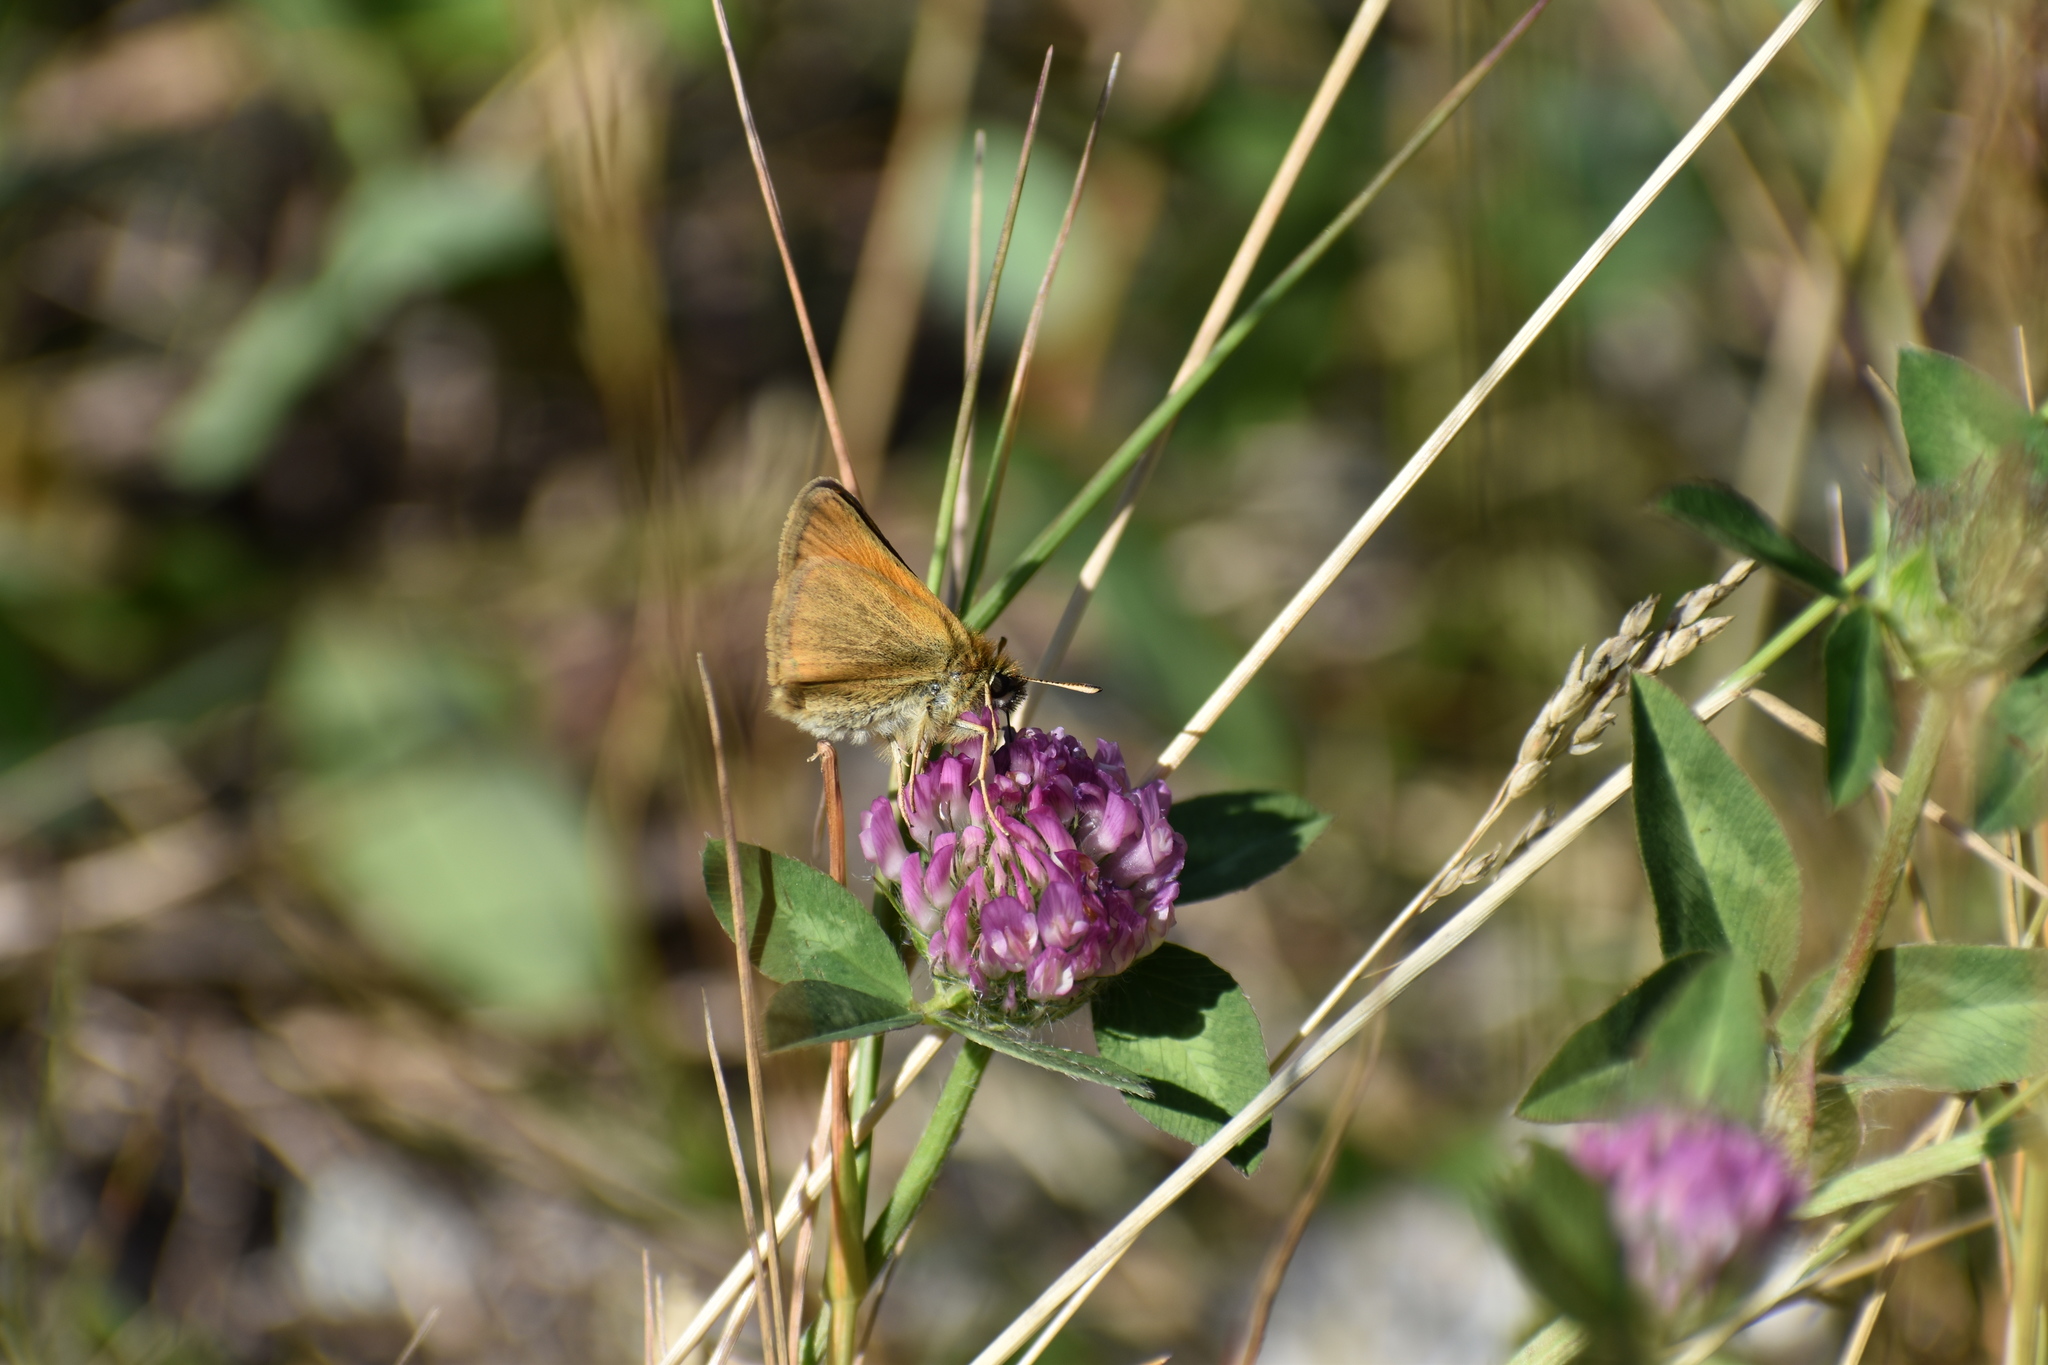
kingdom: Animalia
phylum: Arthropoda
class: Insecta
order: Lepidoptera
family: Hesperiidae
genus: Thymelicus
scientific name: Thymelicus lineola
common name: Essex skipper
